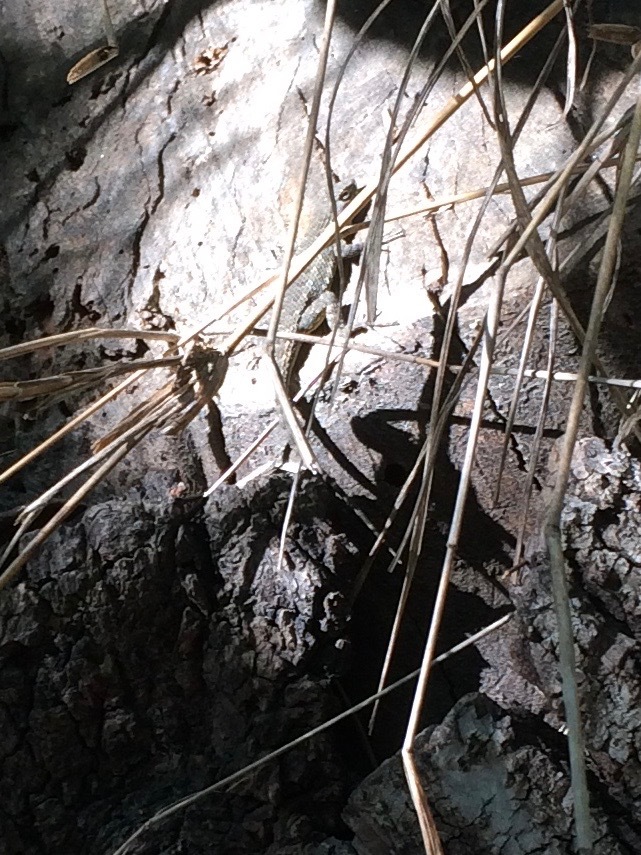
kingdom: Animalia
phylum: Chordata
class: Squamata
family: Phrynosomatidae
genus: Sceloporus
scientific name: Sceloporus occidentalis
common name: Western fence lizard
